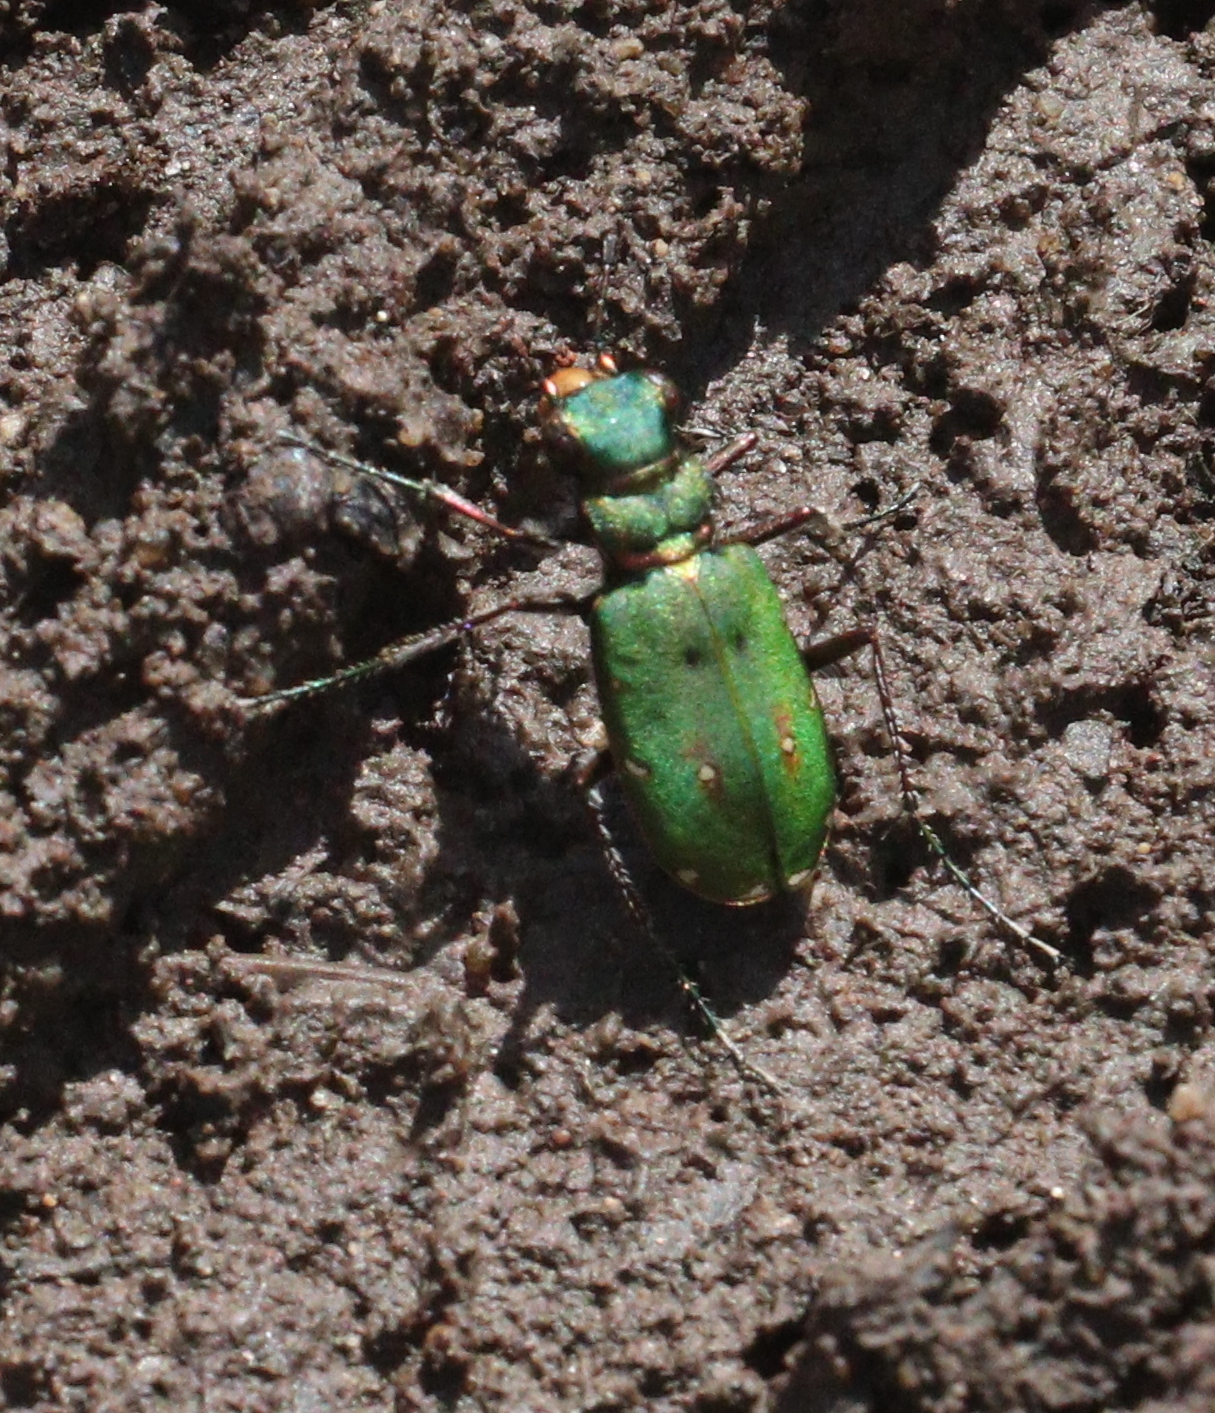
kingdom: Animalia
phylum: Arthropoda
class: Insecta
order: Coleoptera
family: Carabidae
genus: Cicindela
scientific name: Cicindela campestris
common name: Common tiger beetle
